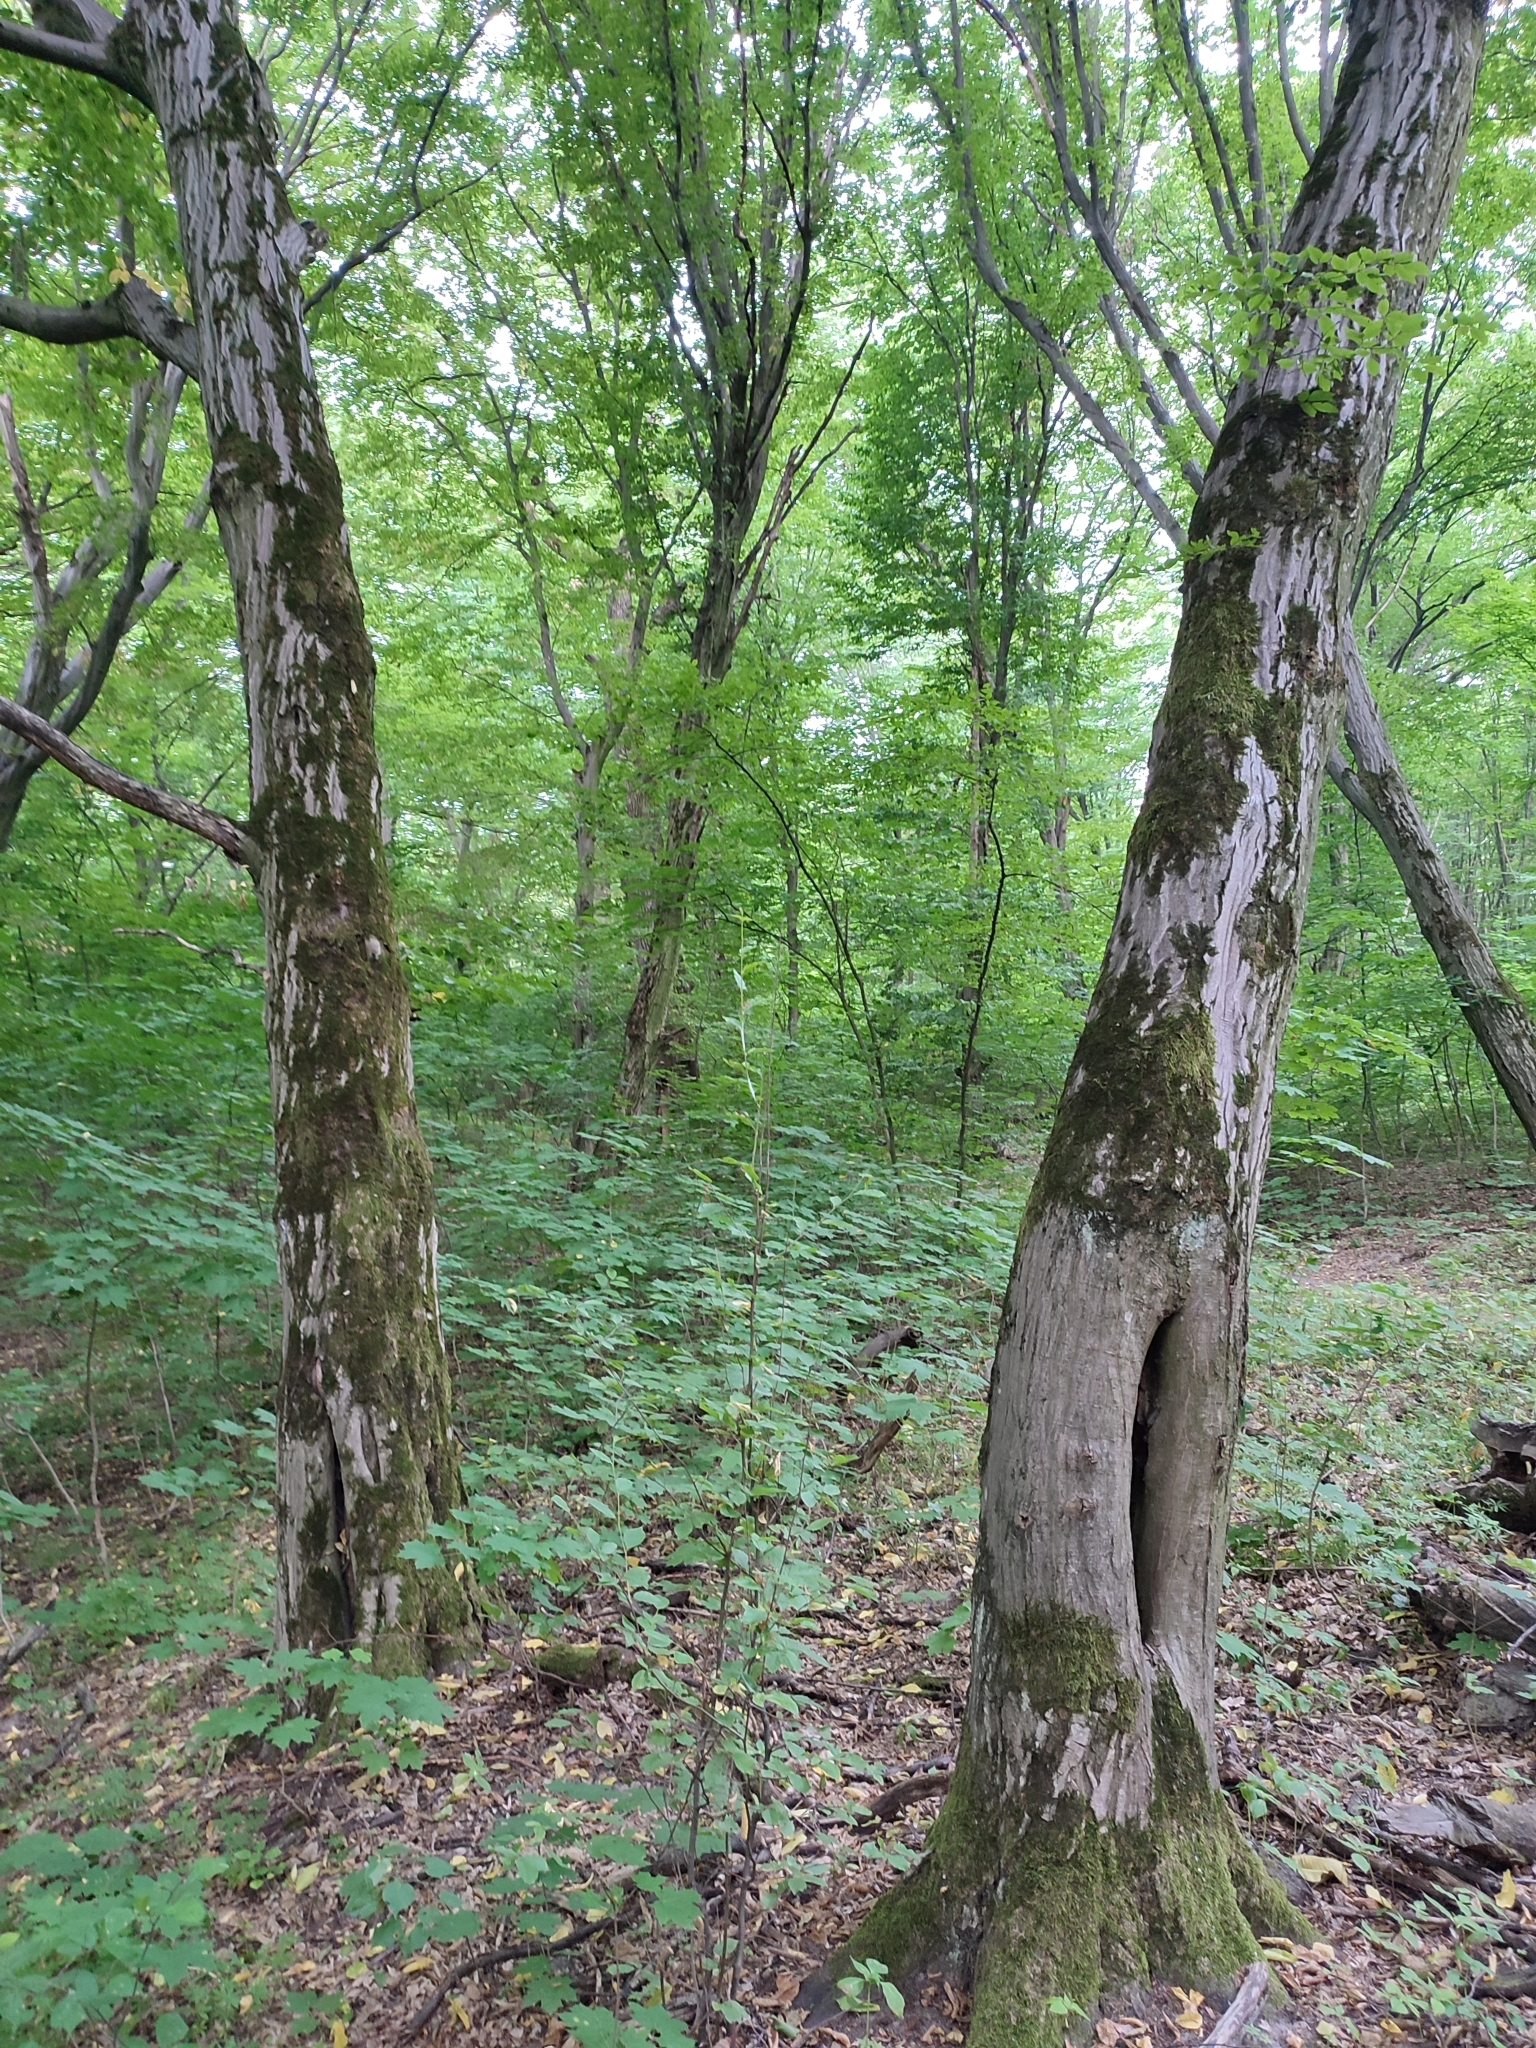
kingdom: Plantae
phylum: Tracheophyta
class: Magnoliopsida
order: Fagales
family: Betulaceae
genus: Carpinus
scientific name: Carpinus betulus
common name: Hornbeam
